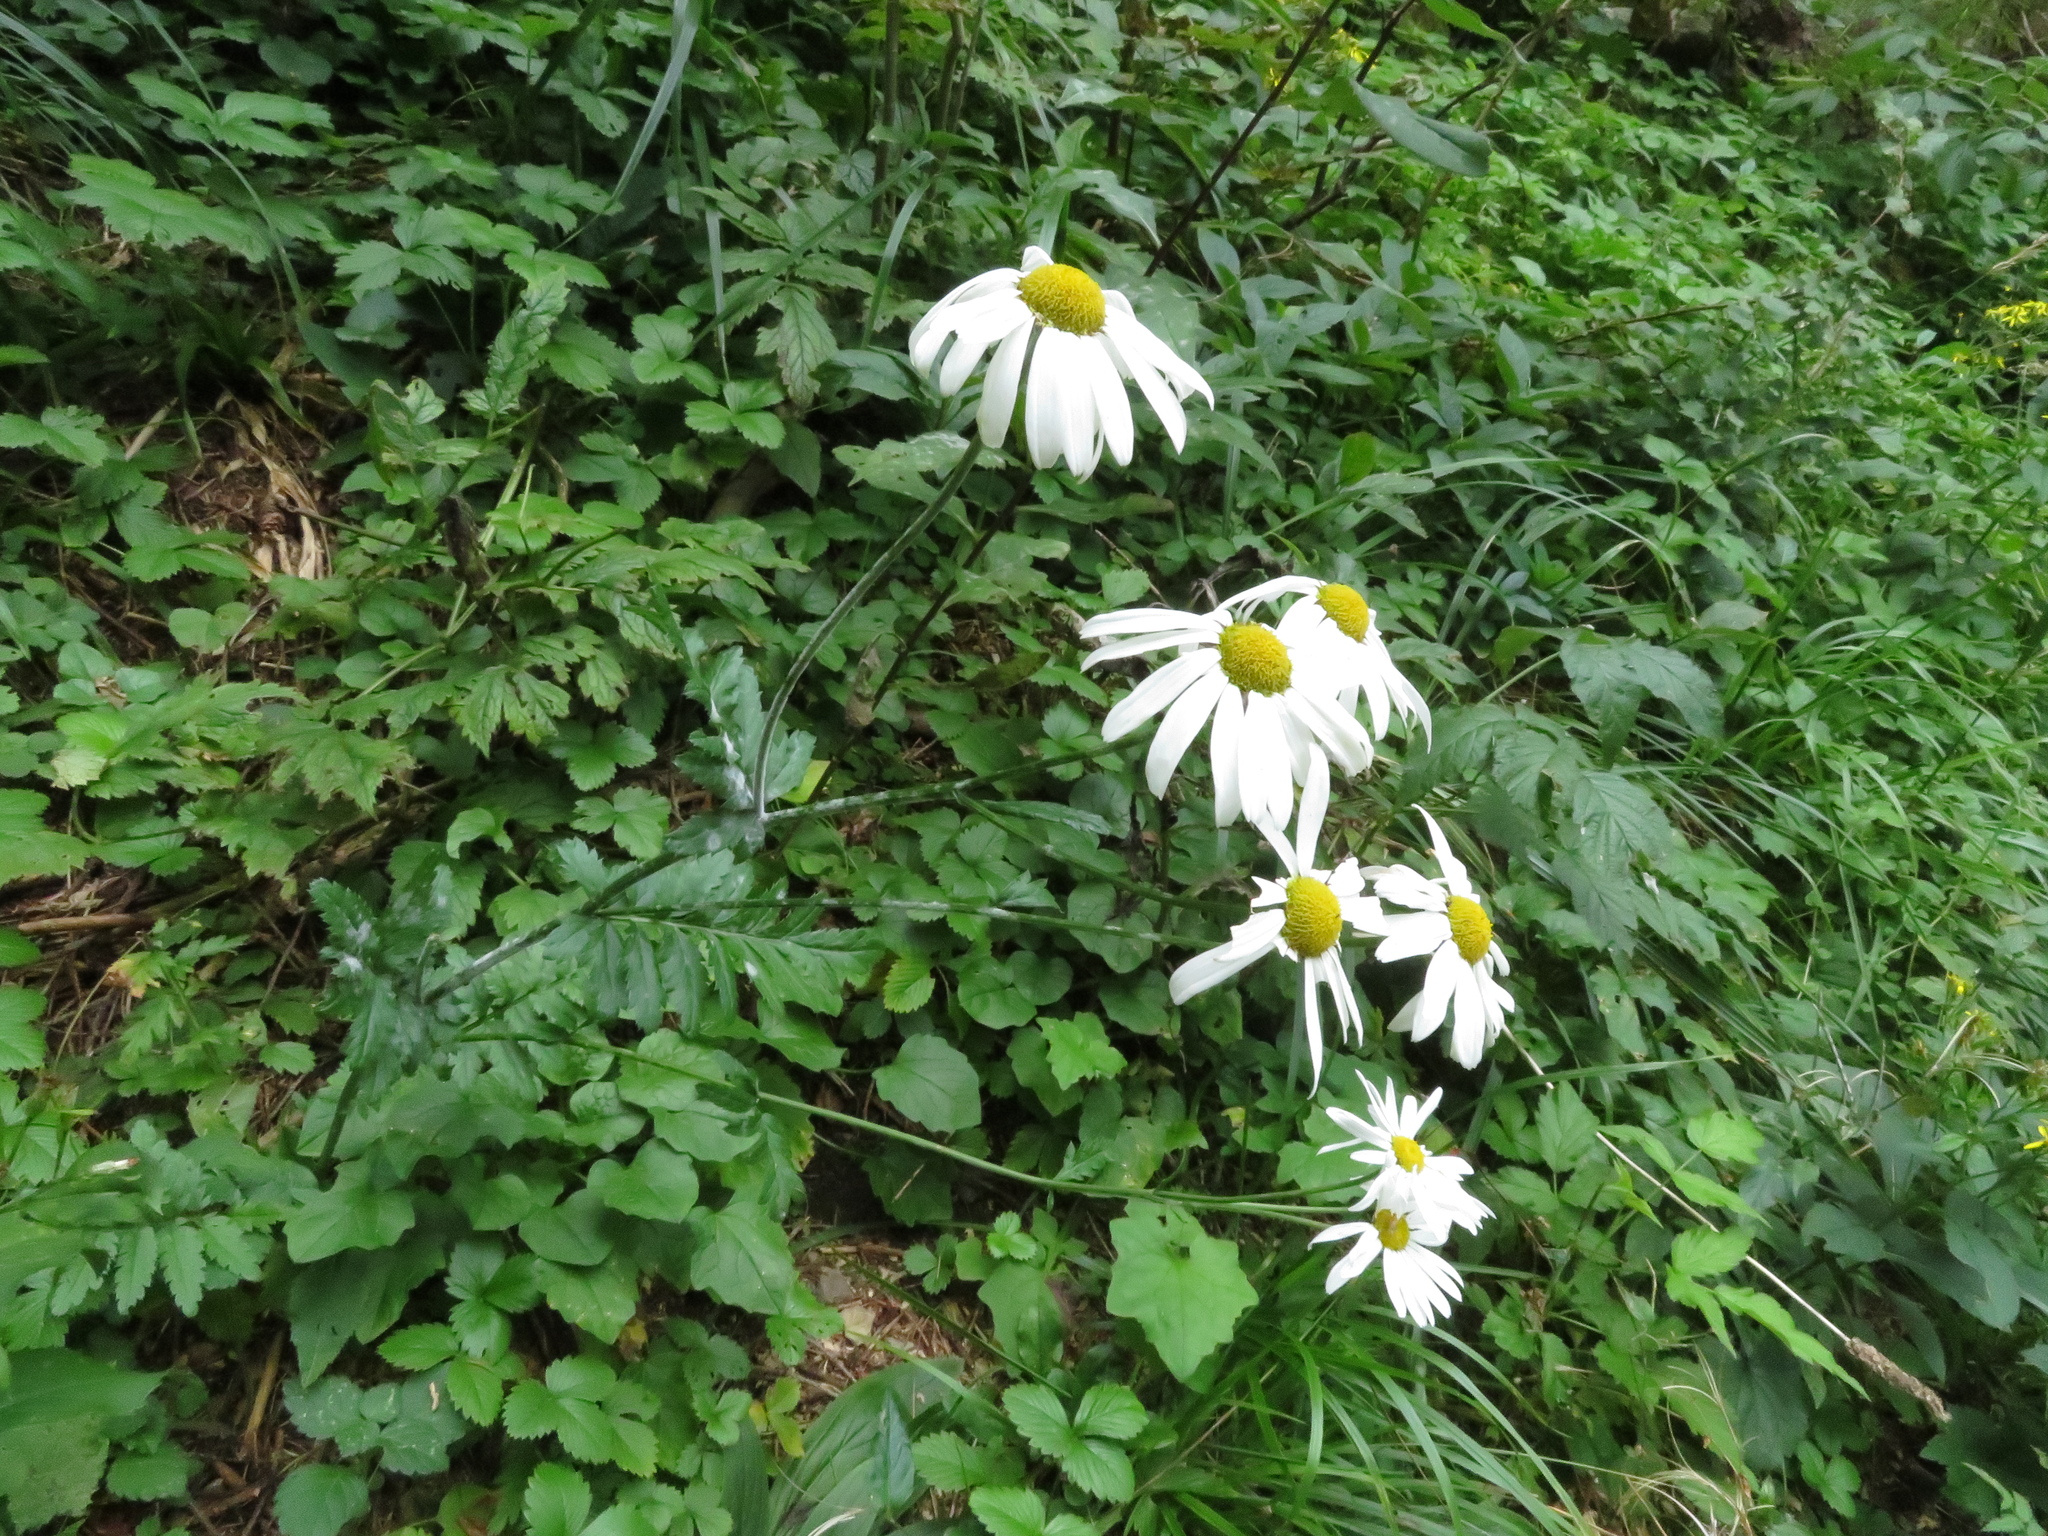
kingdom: Plantae
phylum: Tracheophyta
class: Magnoliopsida
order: Asterales
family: Asteraceae
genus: Tanacetum
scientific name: Tanacetum corymbosum
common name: Scentless feverfew
